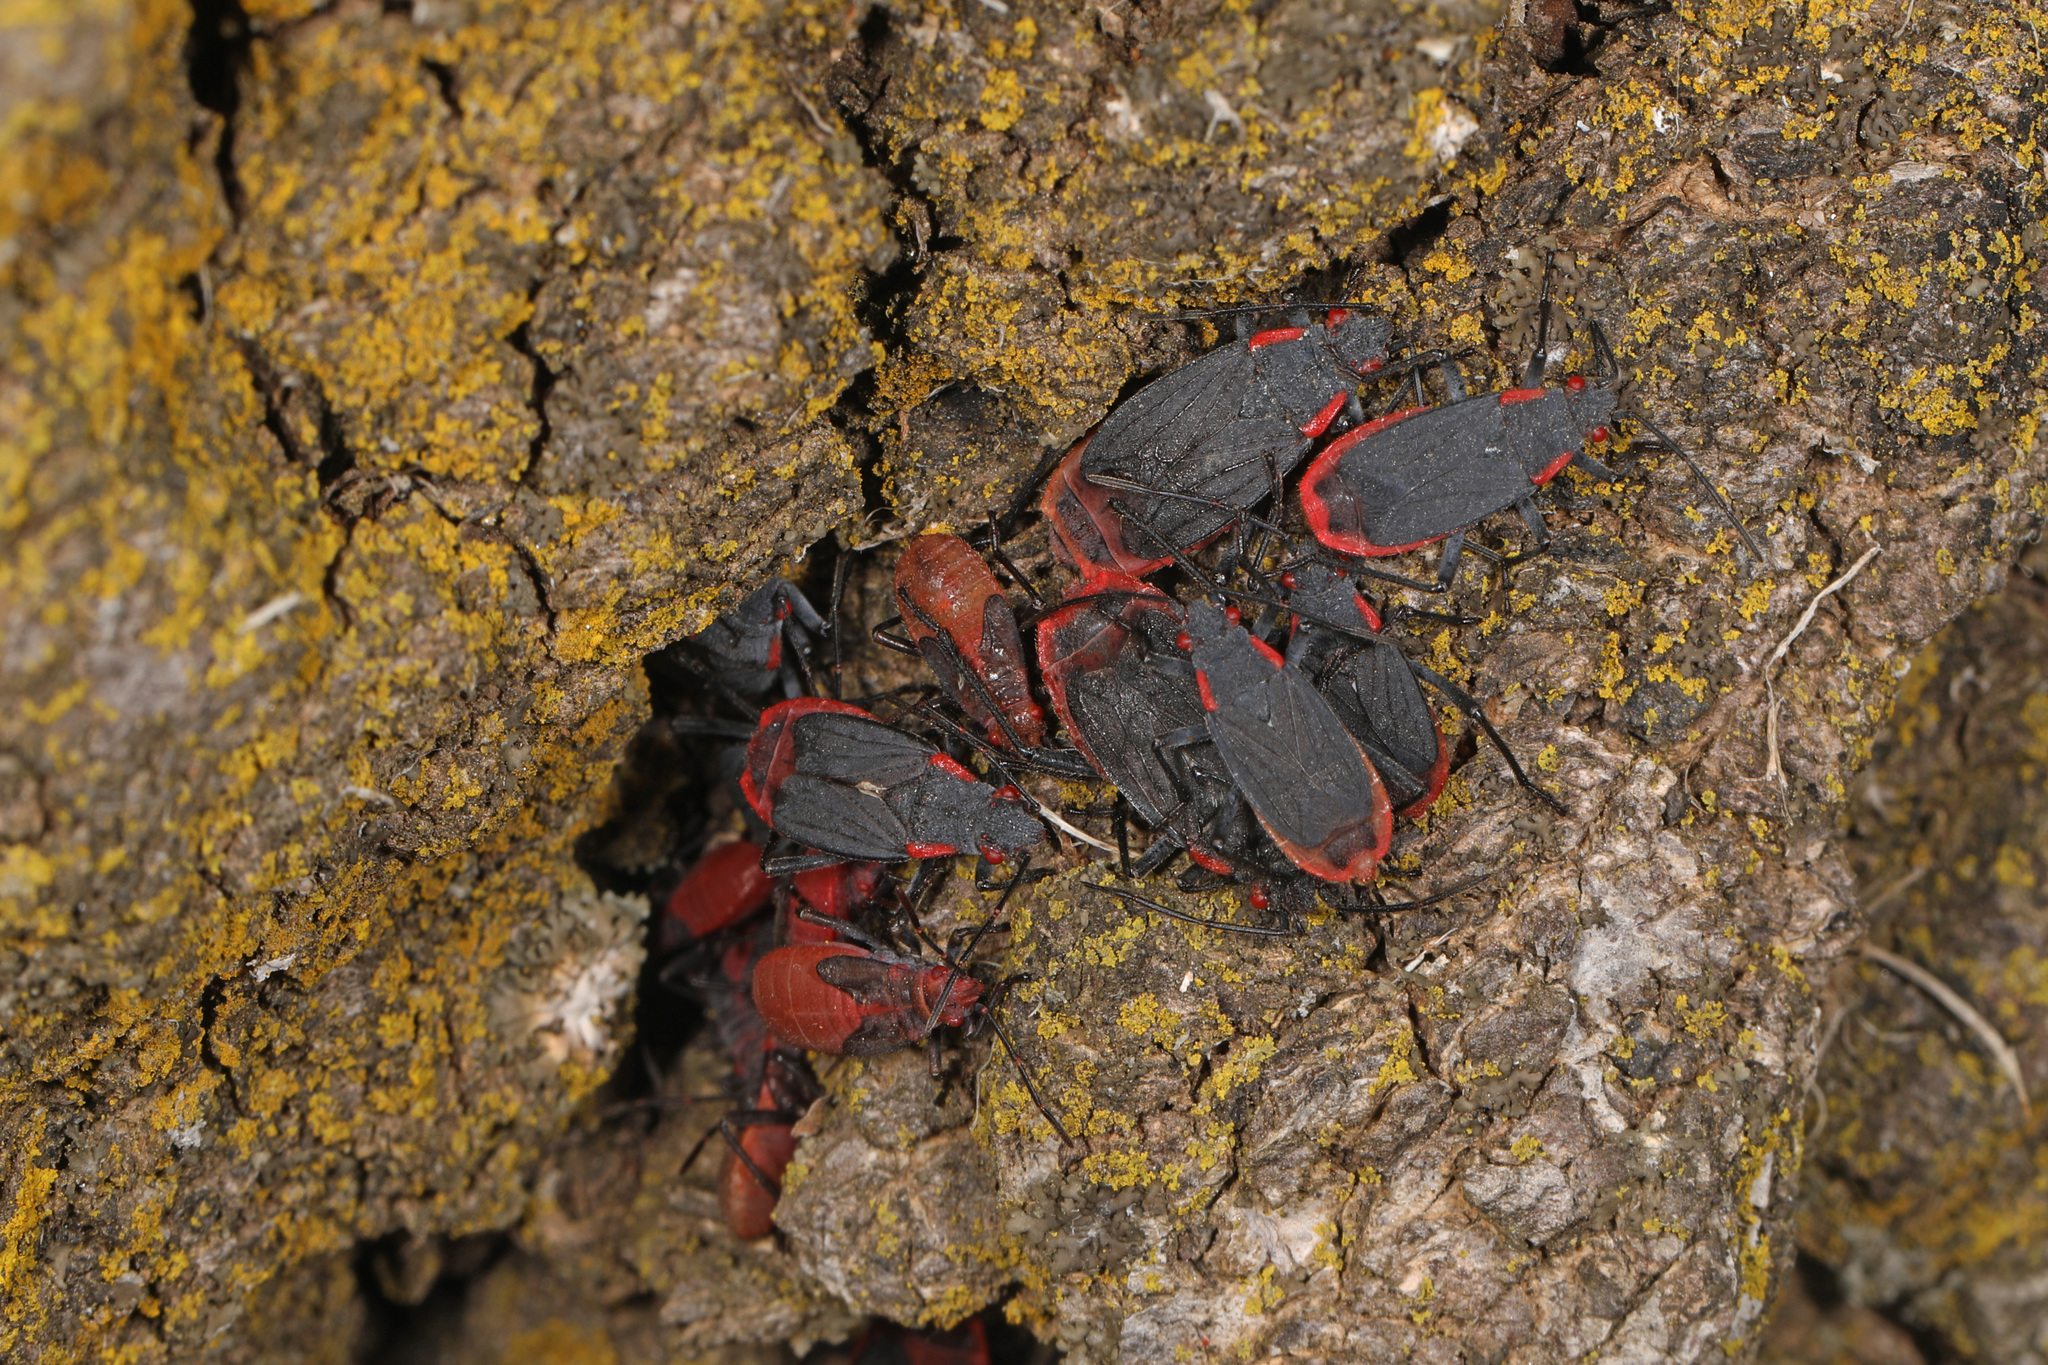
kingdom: Animalia
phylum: Arthropoda
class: Insecta
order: Hemiptera
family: Rhopalidae
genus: Jadera
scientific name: Jadera haematoloma
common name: Red-shouldered bug
